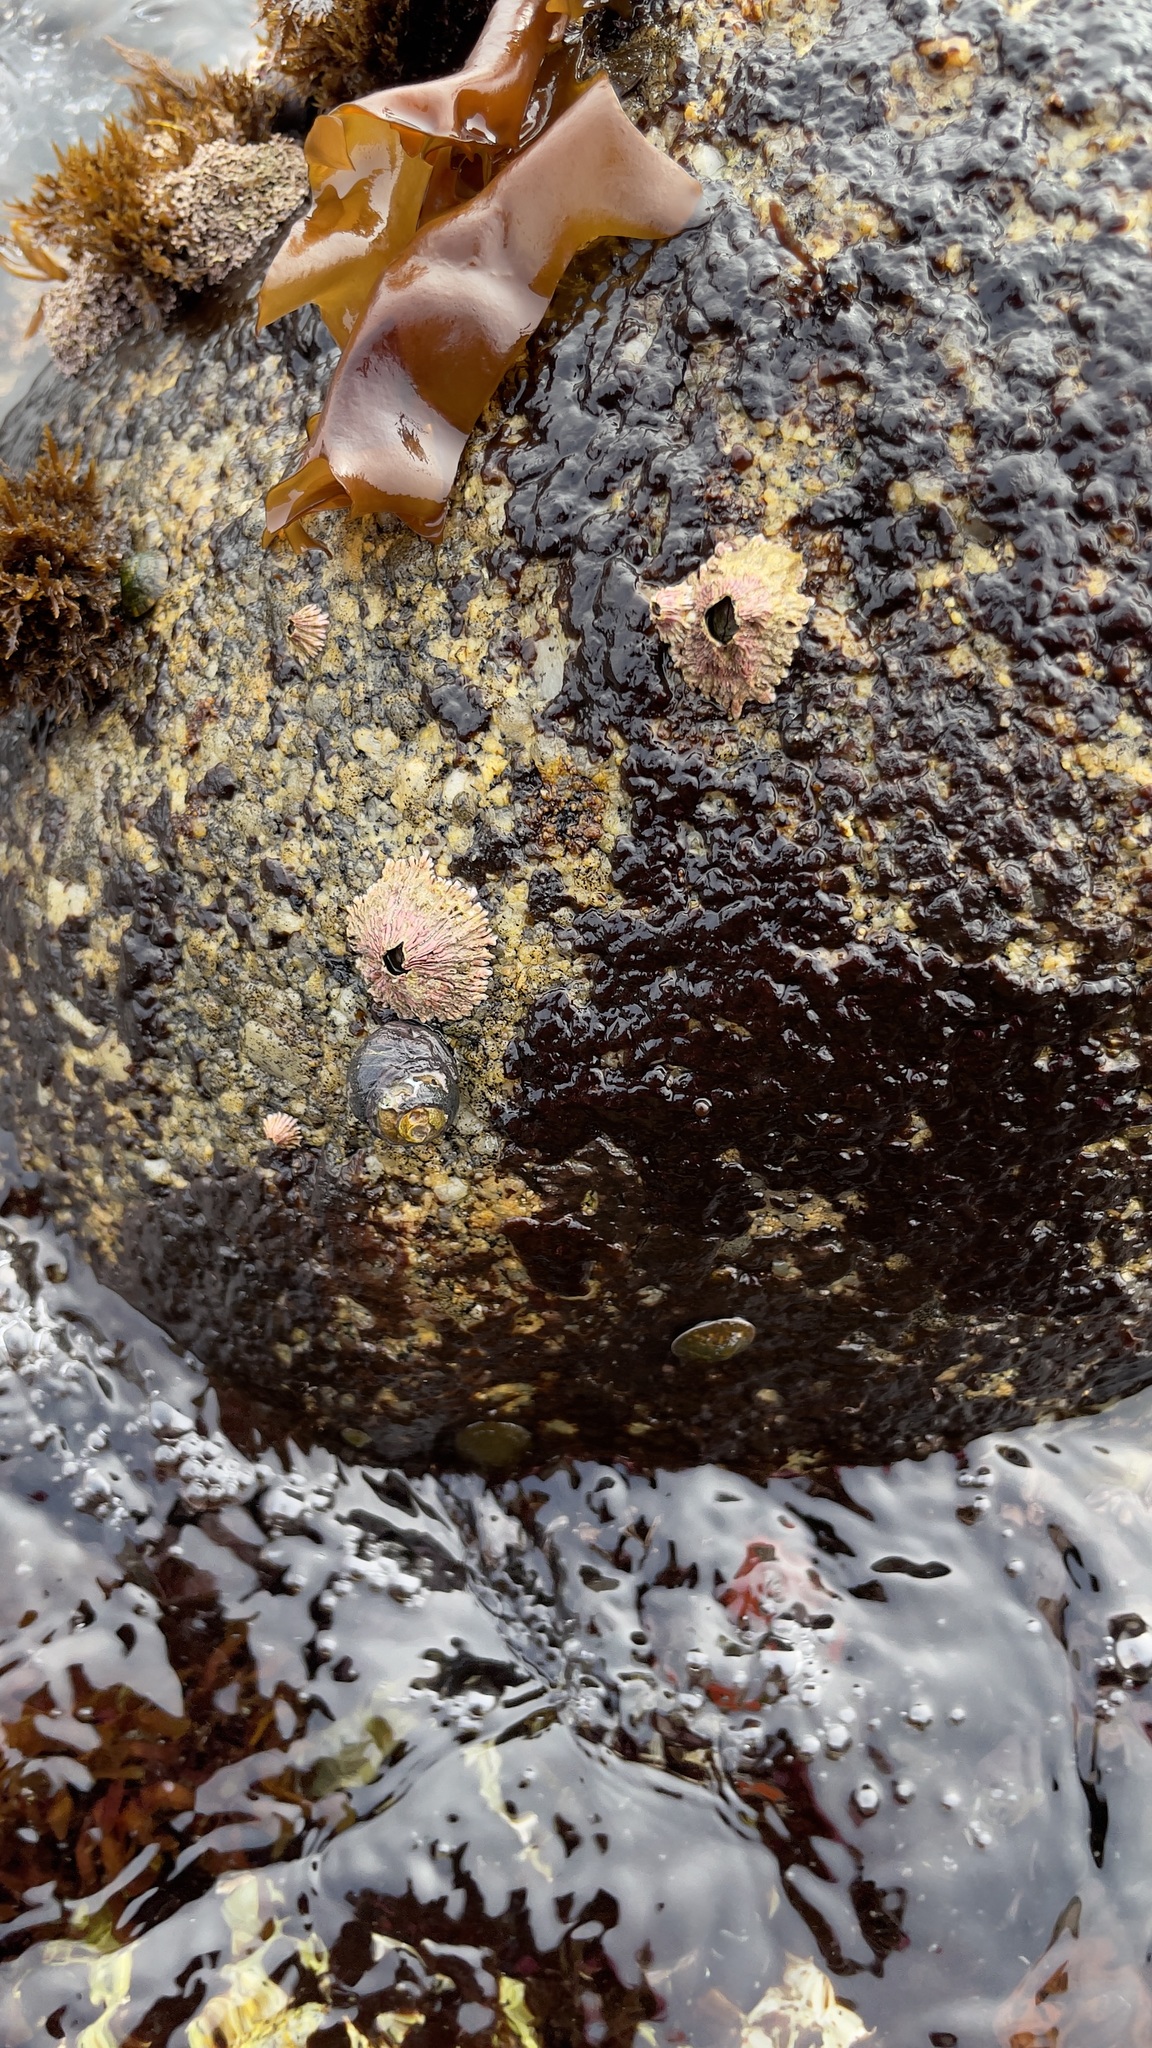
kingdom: Animalia
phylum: Arthropoda
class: Maxillopoda
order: Sessilia
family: Tetraclitidae
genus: Tetraclita
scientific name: Tetraclita rubescens
